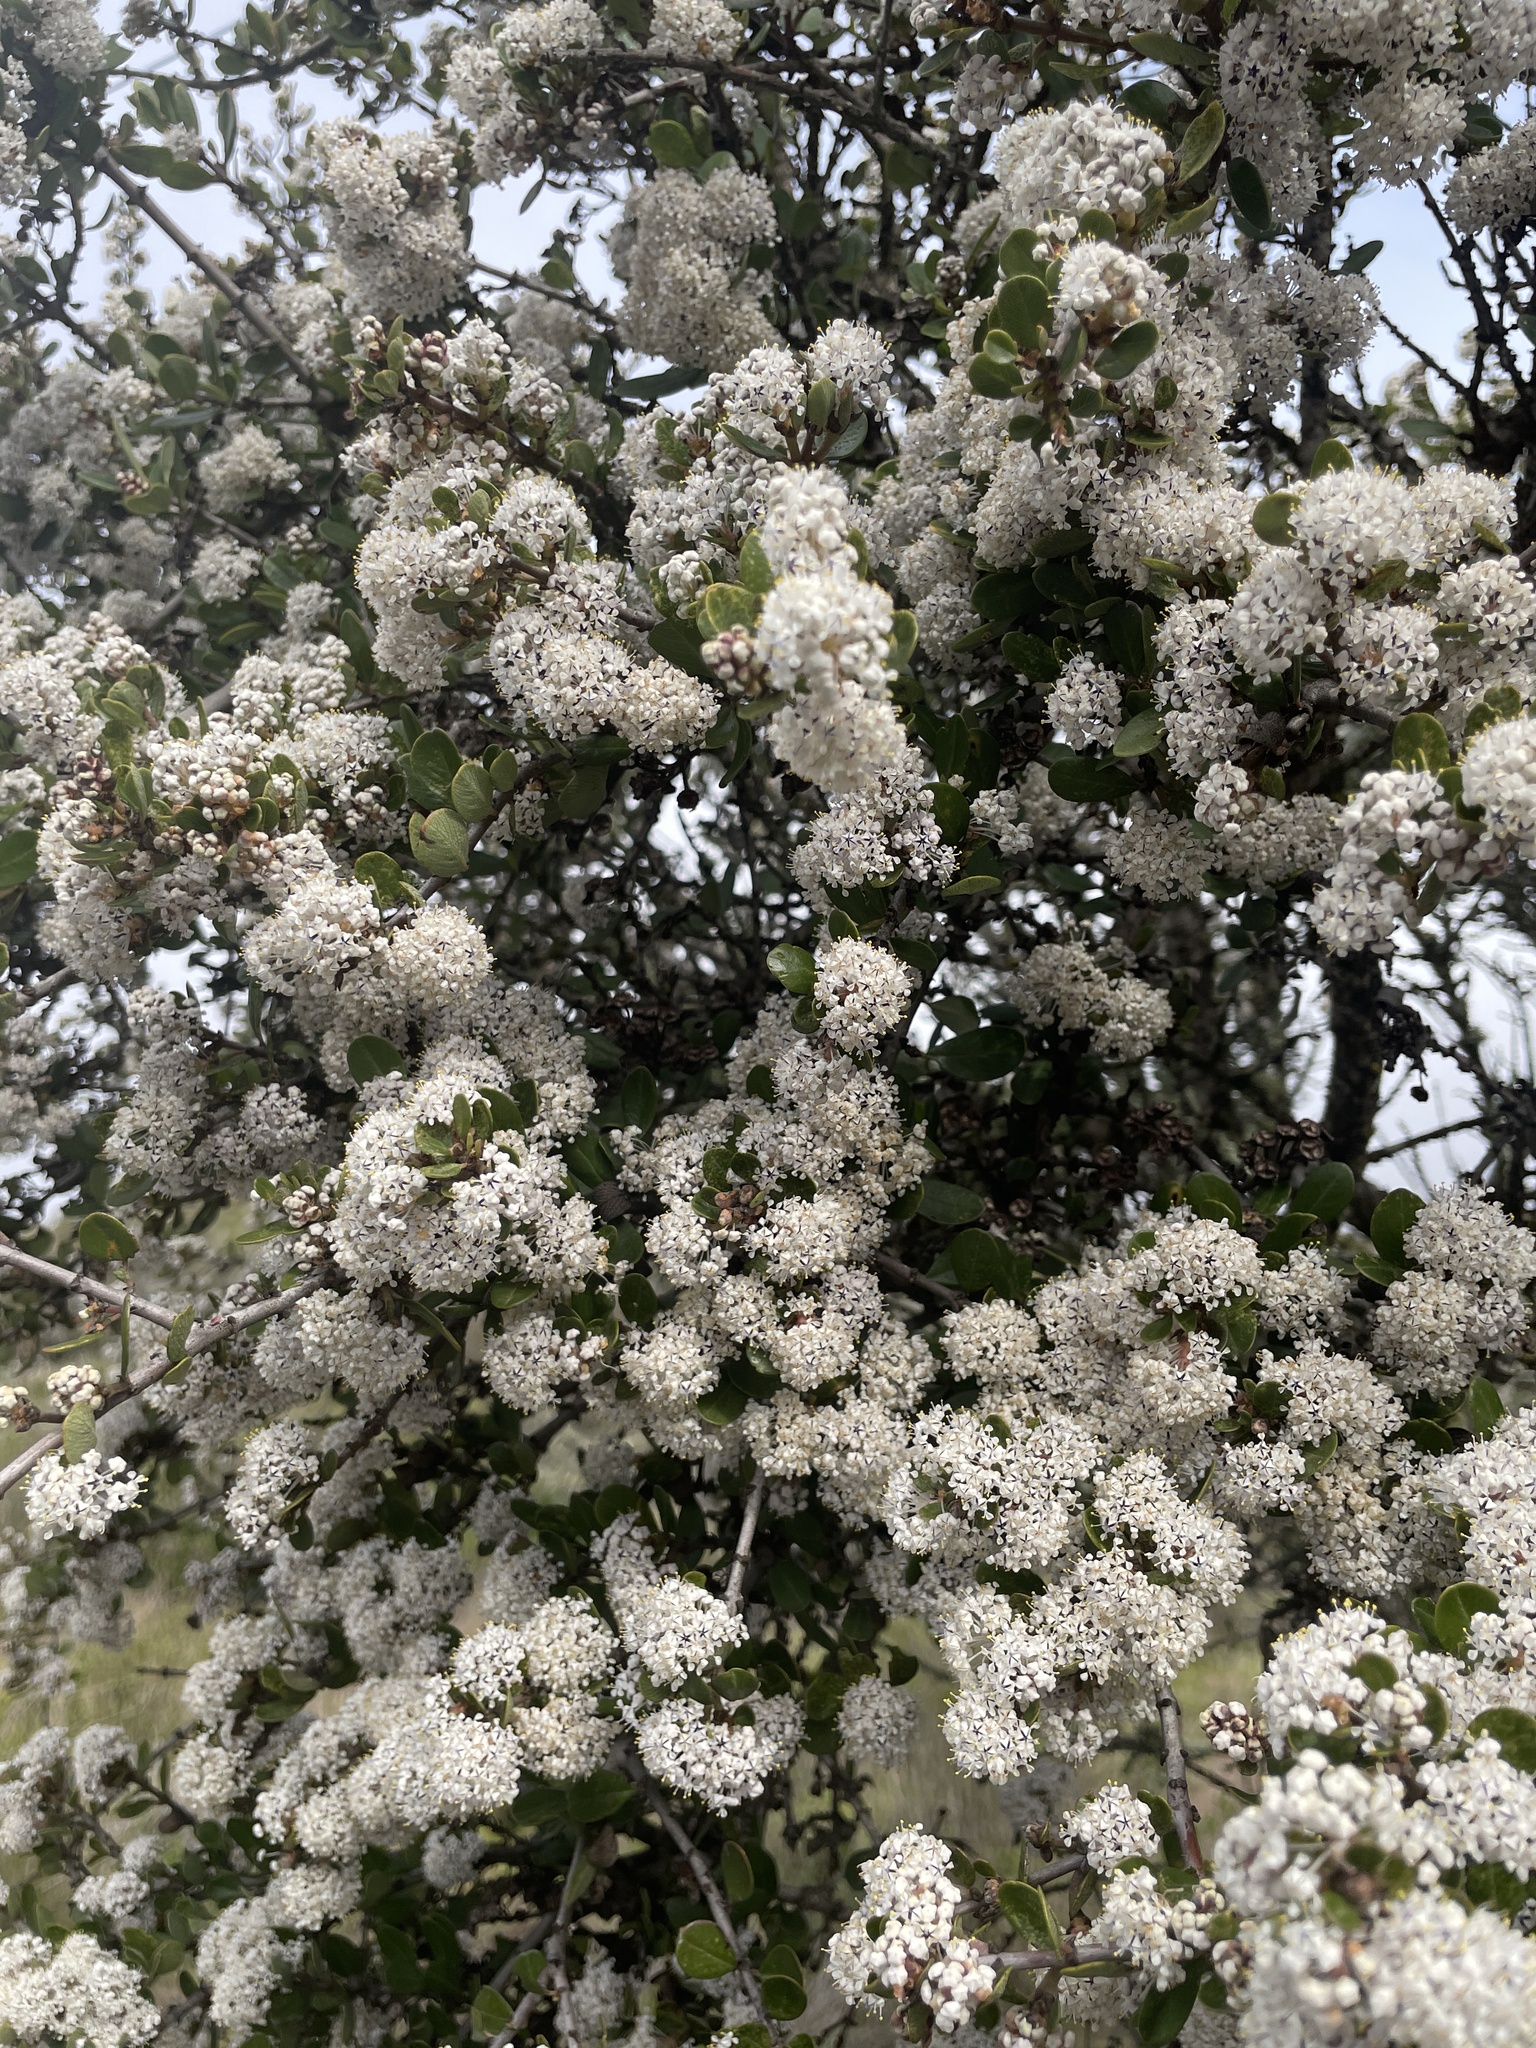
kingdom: Plantae
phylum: Tracheophyta
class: Magnoliopsida
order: Rosales
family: Rhamnaceae
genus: Ceanothus
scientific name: Ceanothus cuneatus
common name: Cuneate ceanothus
